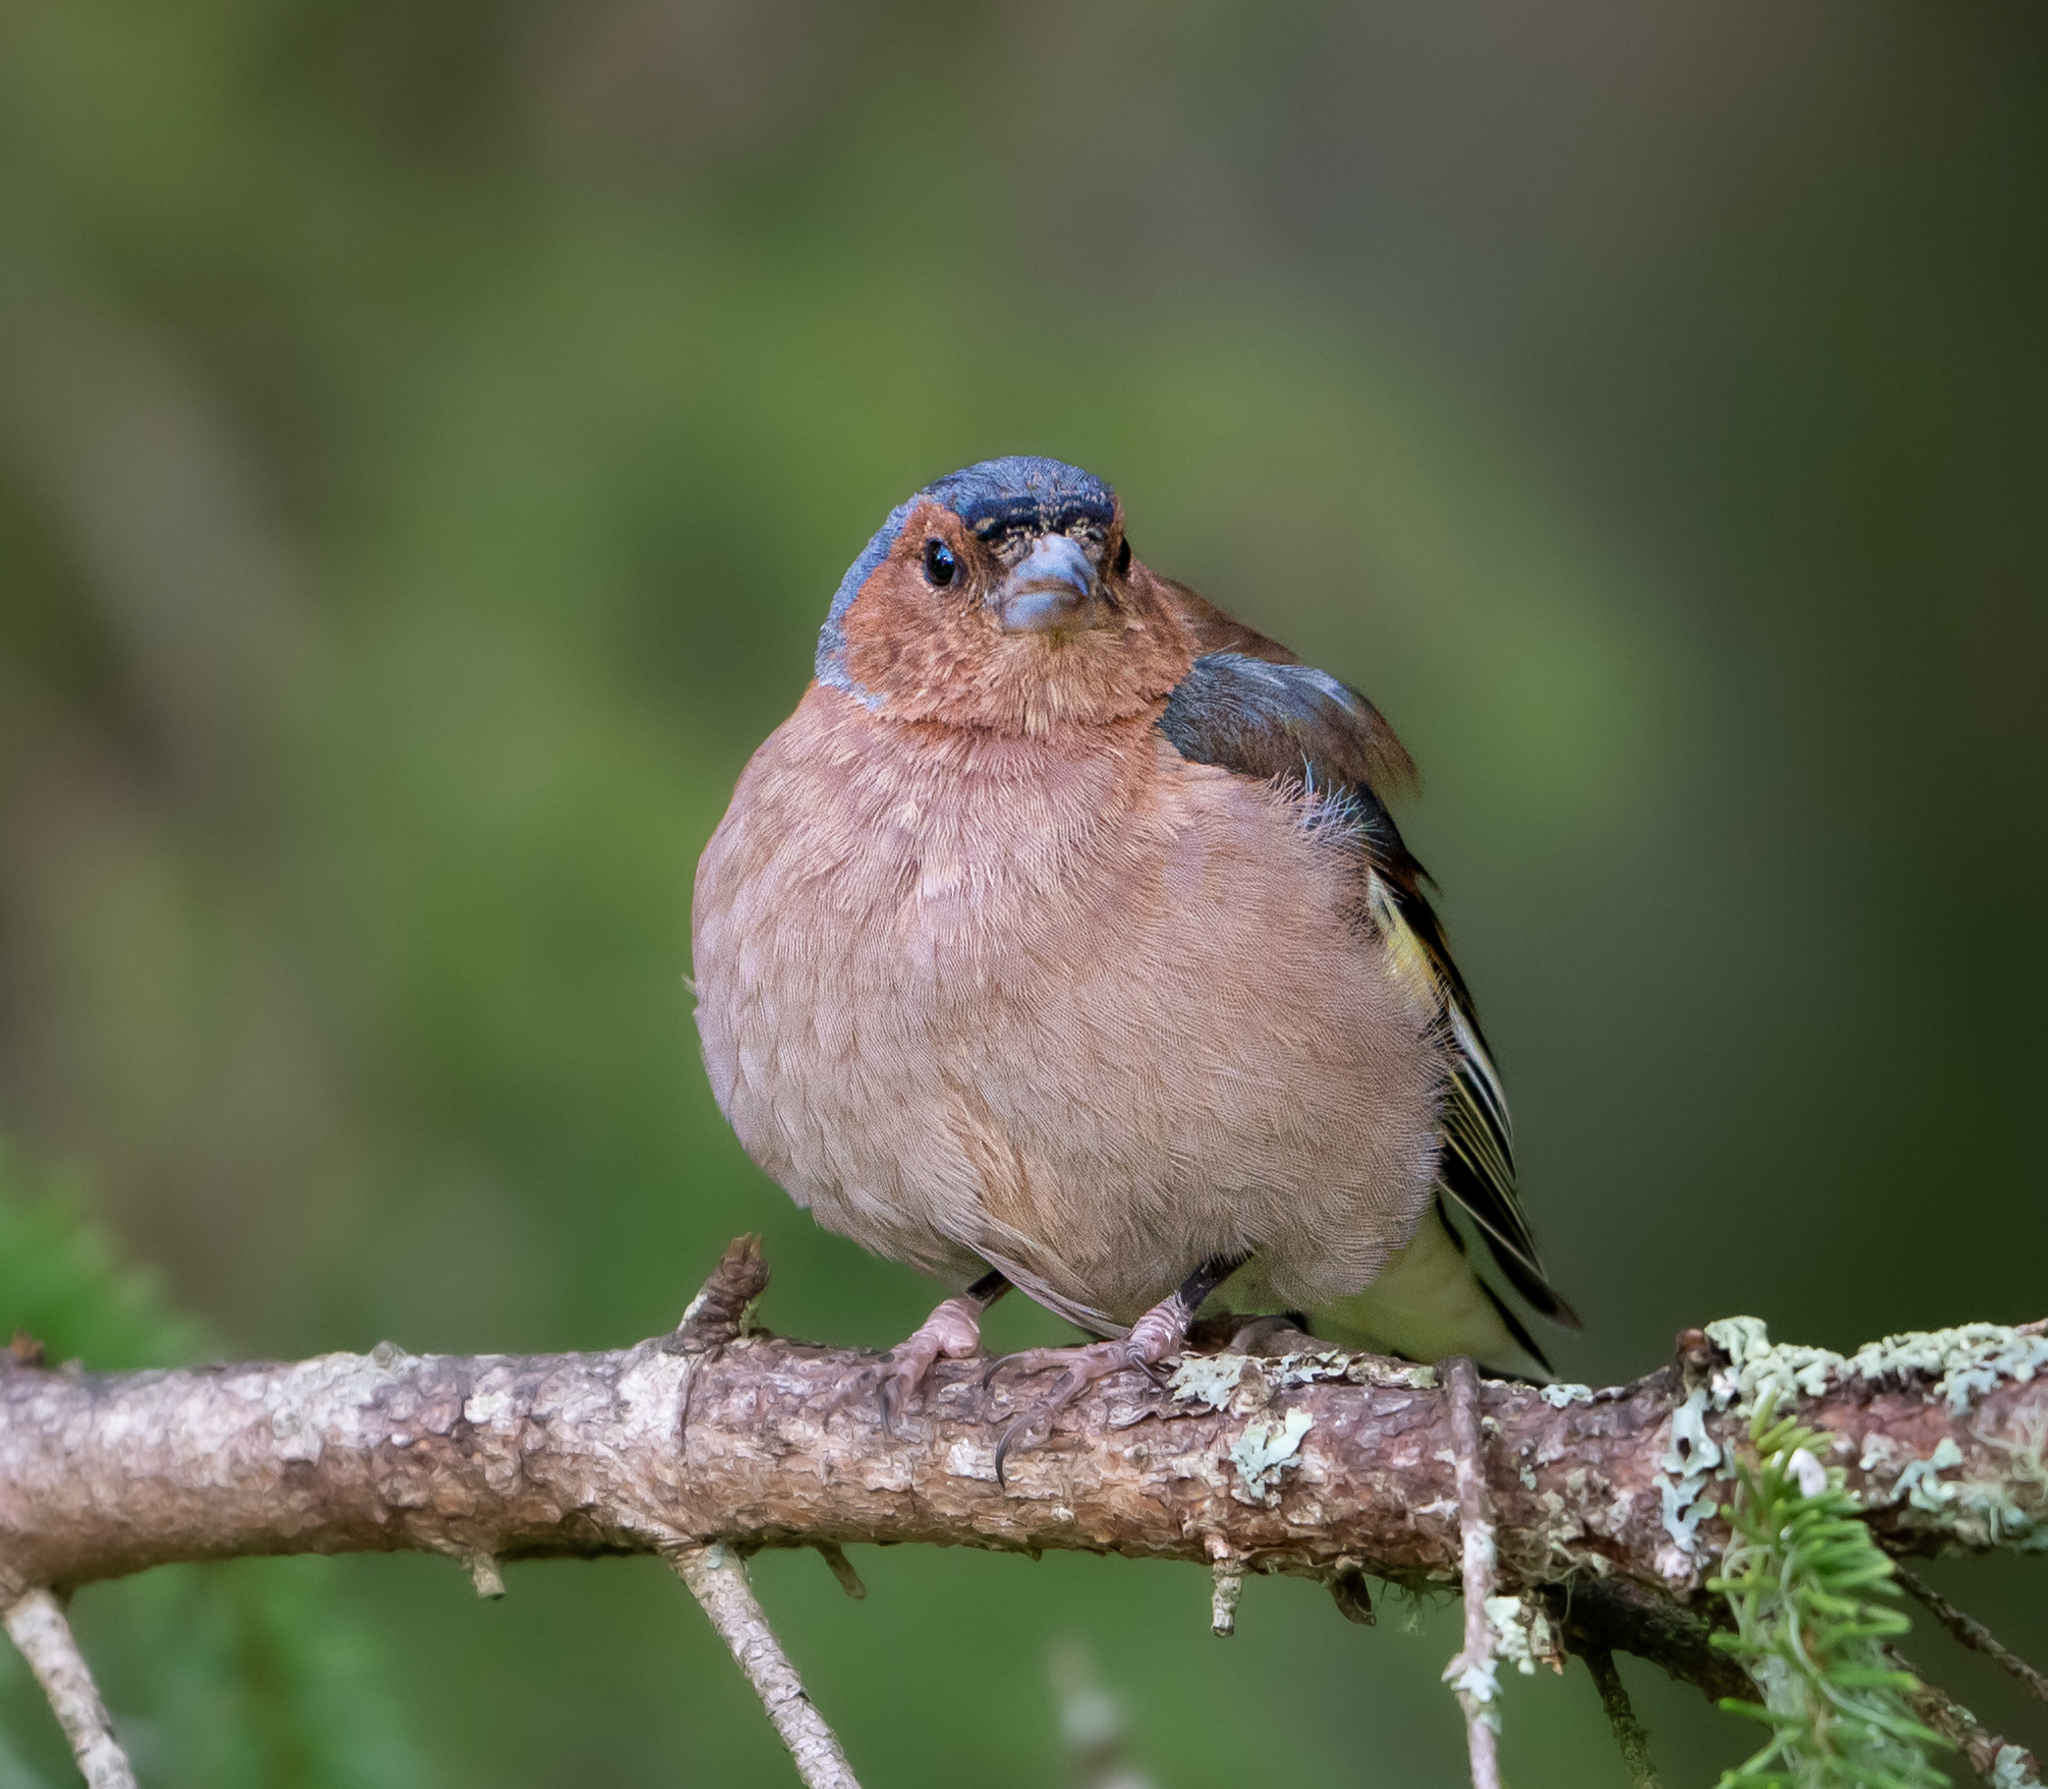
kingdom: Animalia
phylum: Chordata
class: Aves
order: Passeriformes
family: Fringillidae
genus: Fringilla
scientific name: Fringilla coelebs
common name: Common chaffinch
